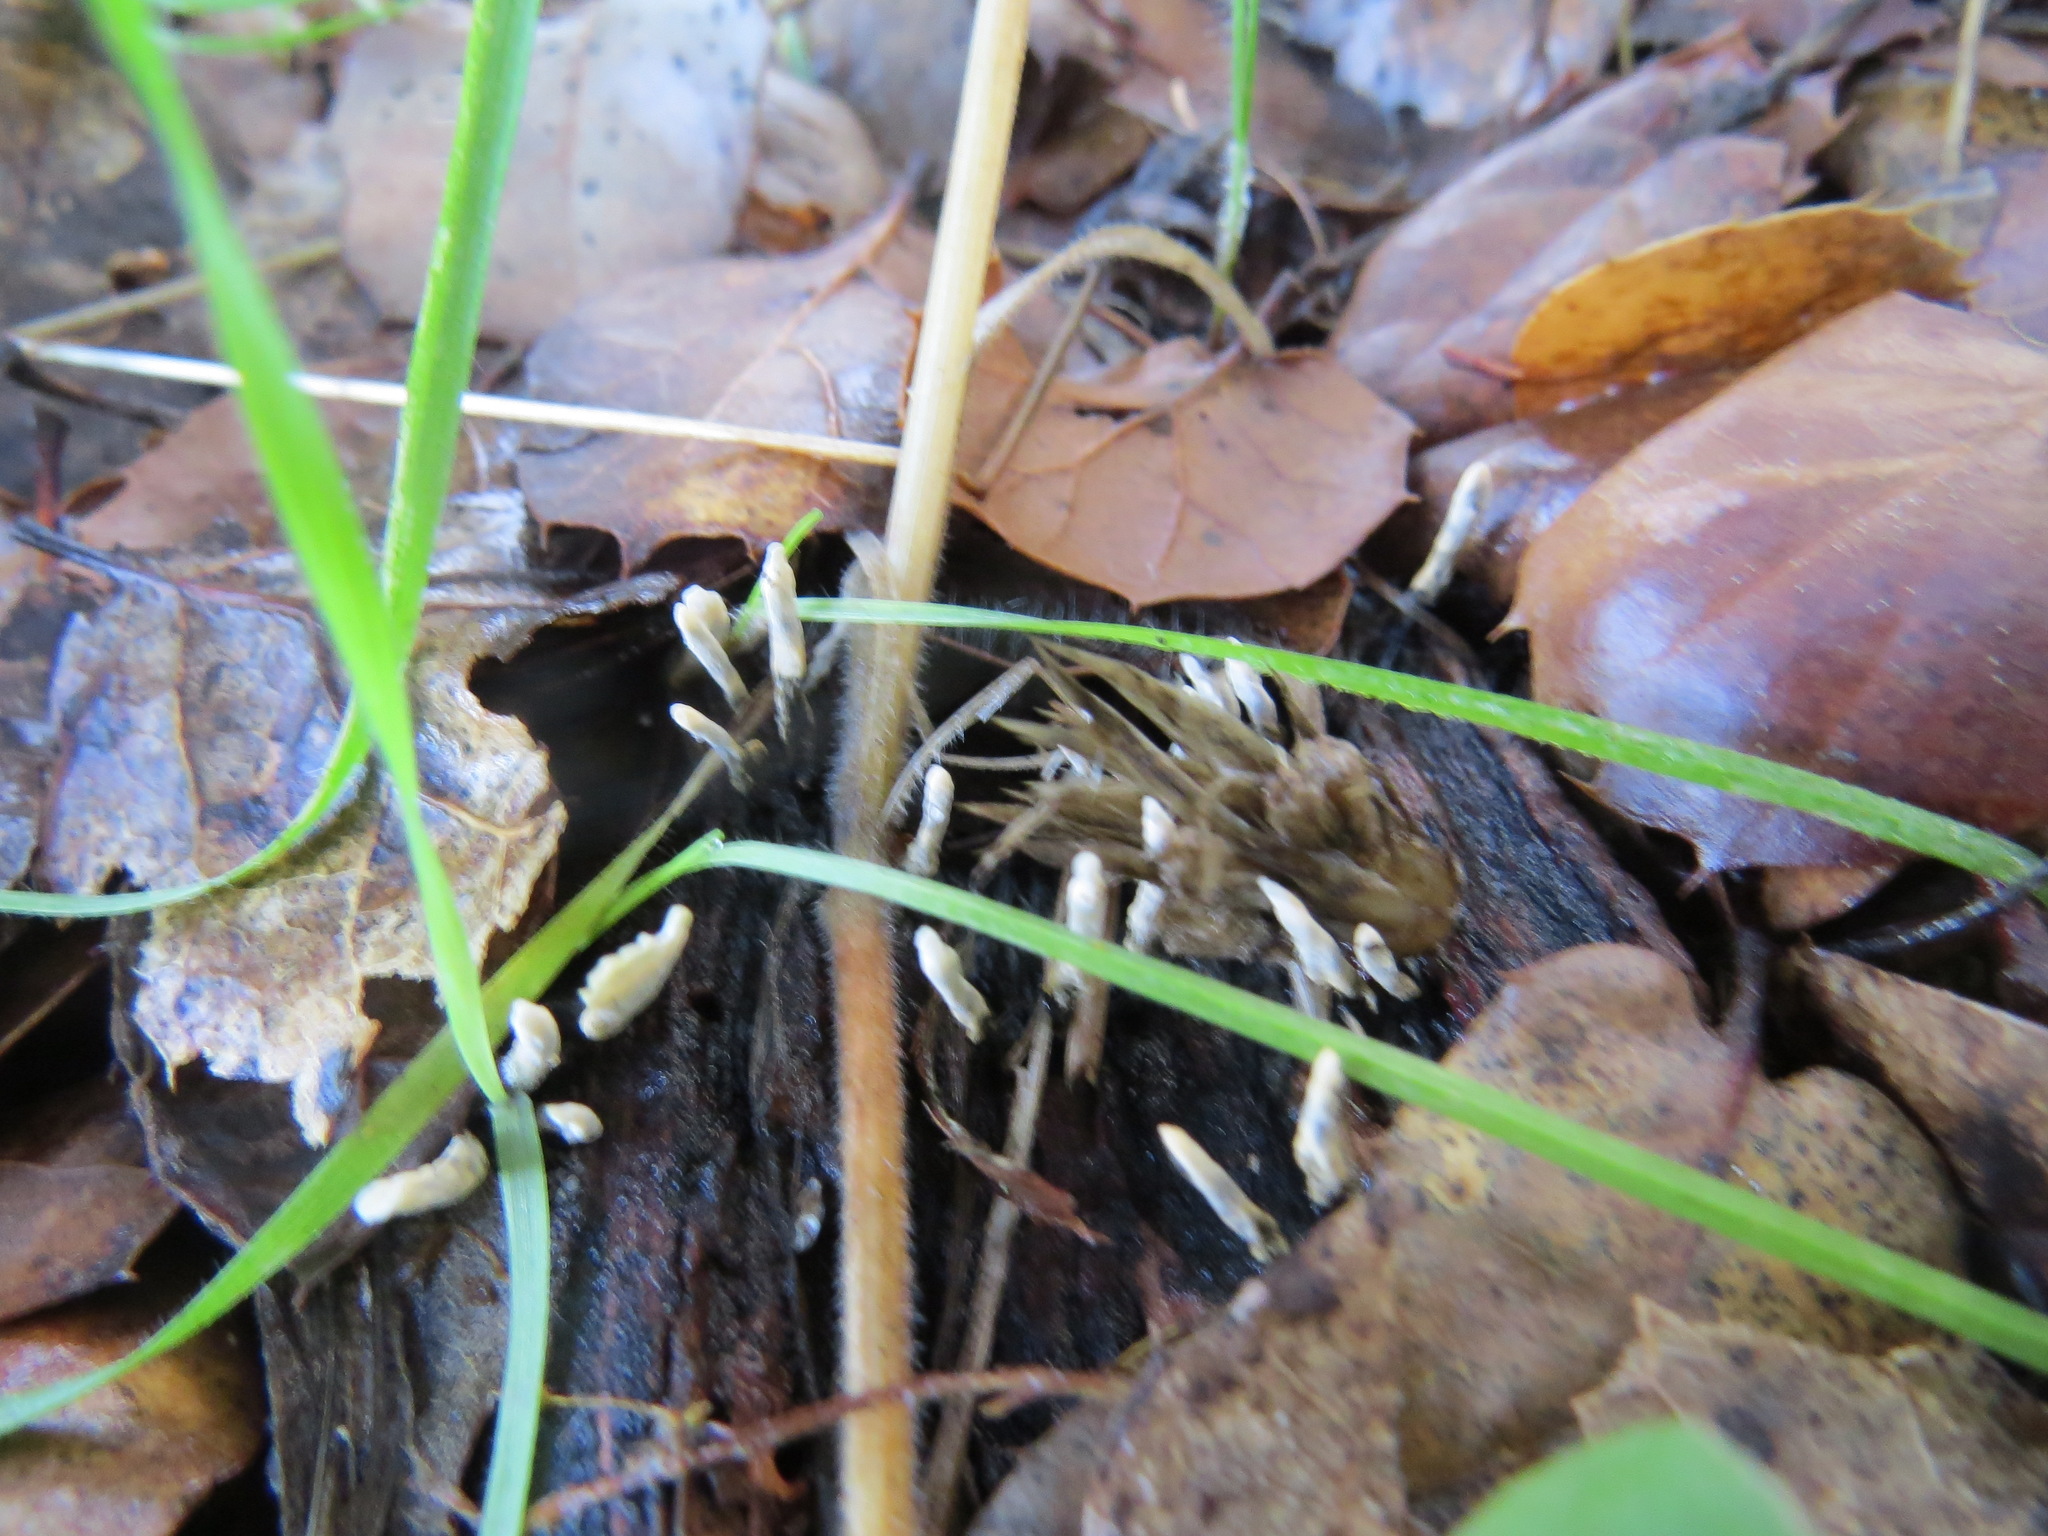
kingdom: Fungi
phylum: Ascomycota
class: Sordariomycetes
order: Xylariales
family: Xylariaceae
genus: Xylaria
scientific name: Xylaria hypoxylon
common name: Candle-snuff fungus
